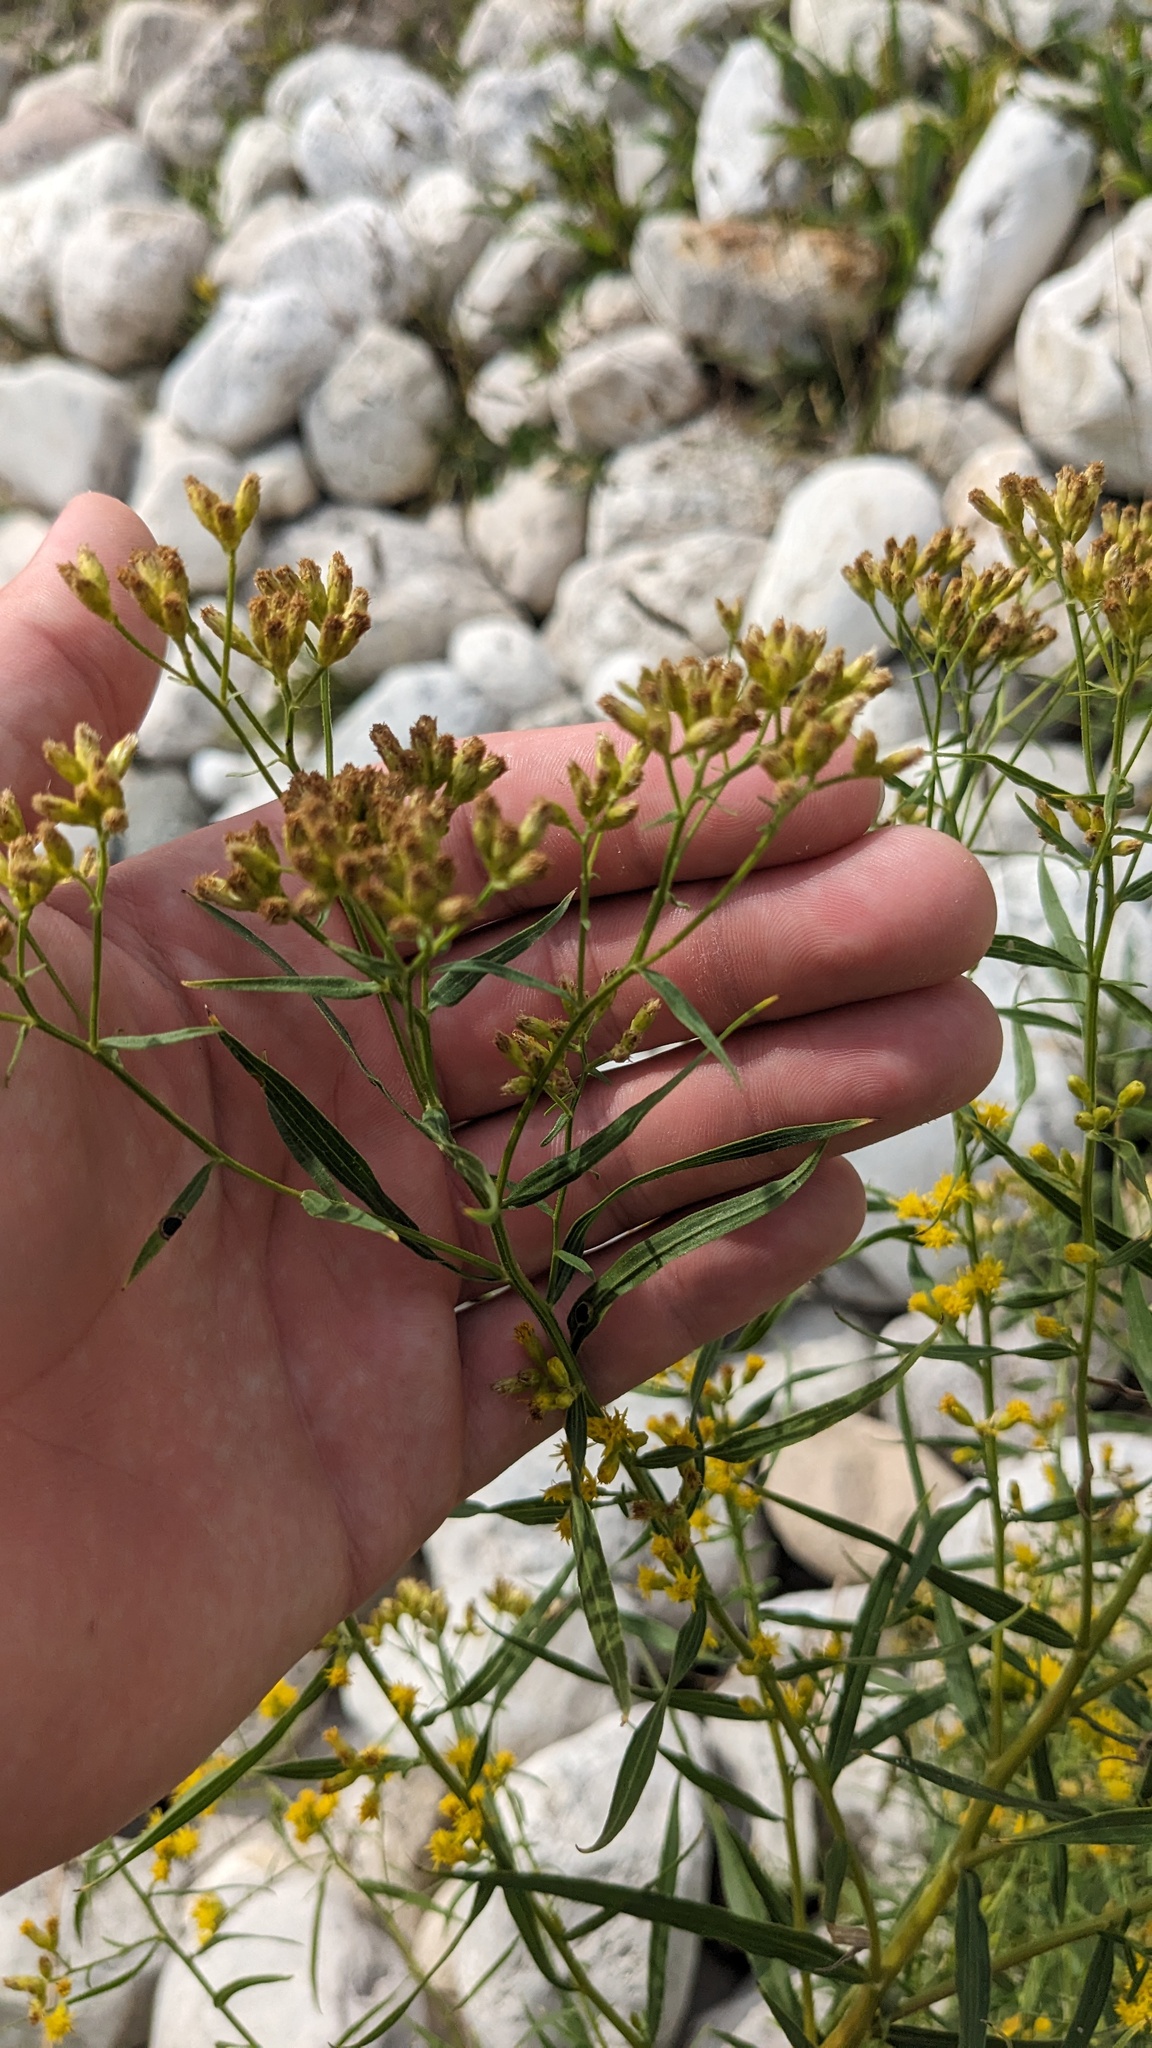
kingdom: Plantae
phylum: Tracheophyta
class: Magnoliopsida
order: Asterales
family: Asteraceae
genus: Euthamia
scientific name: Euthamia graminifolia
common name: Common goldentop
